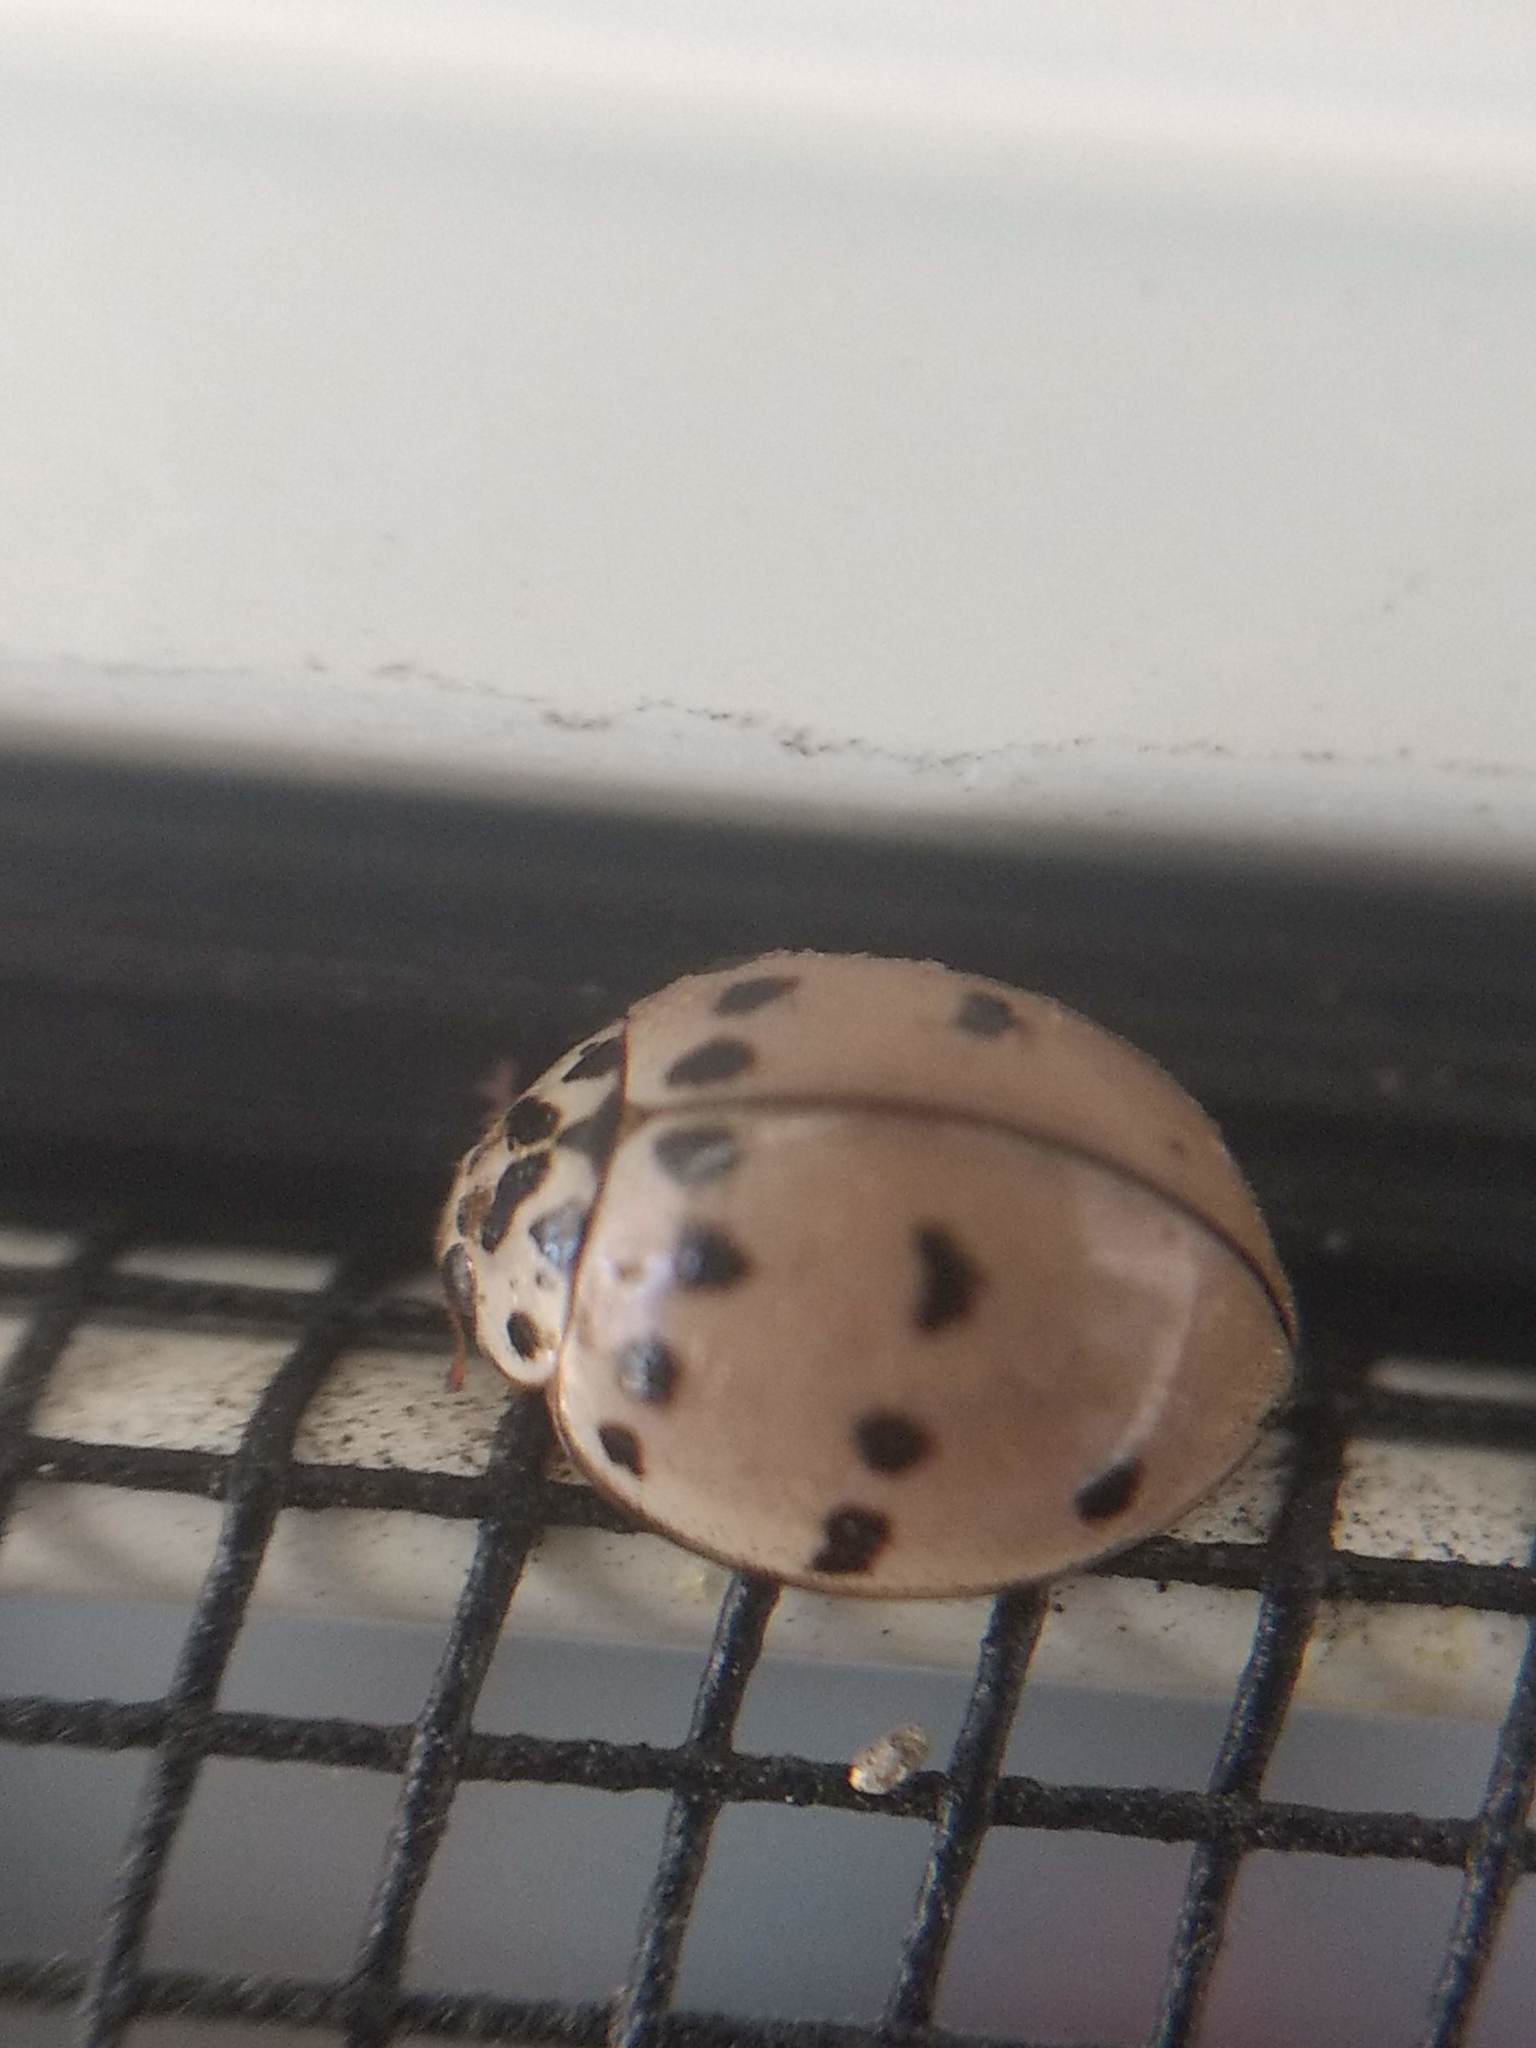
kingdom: Animalia
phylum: Arthropoda
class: Insecta
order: Coleoptera
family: Coccinellidae
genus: Olla
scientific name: Olla v-nigrum
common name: Ashy gray lady beetle
